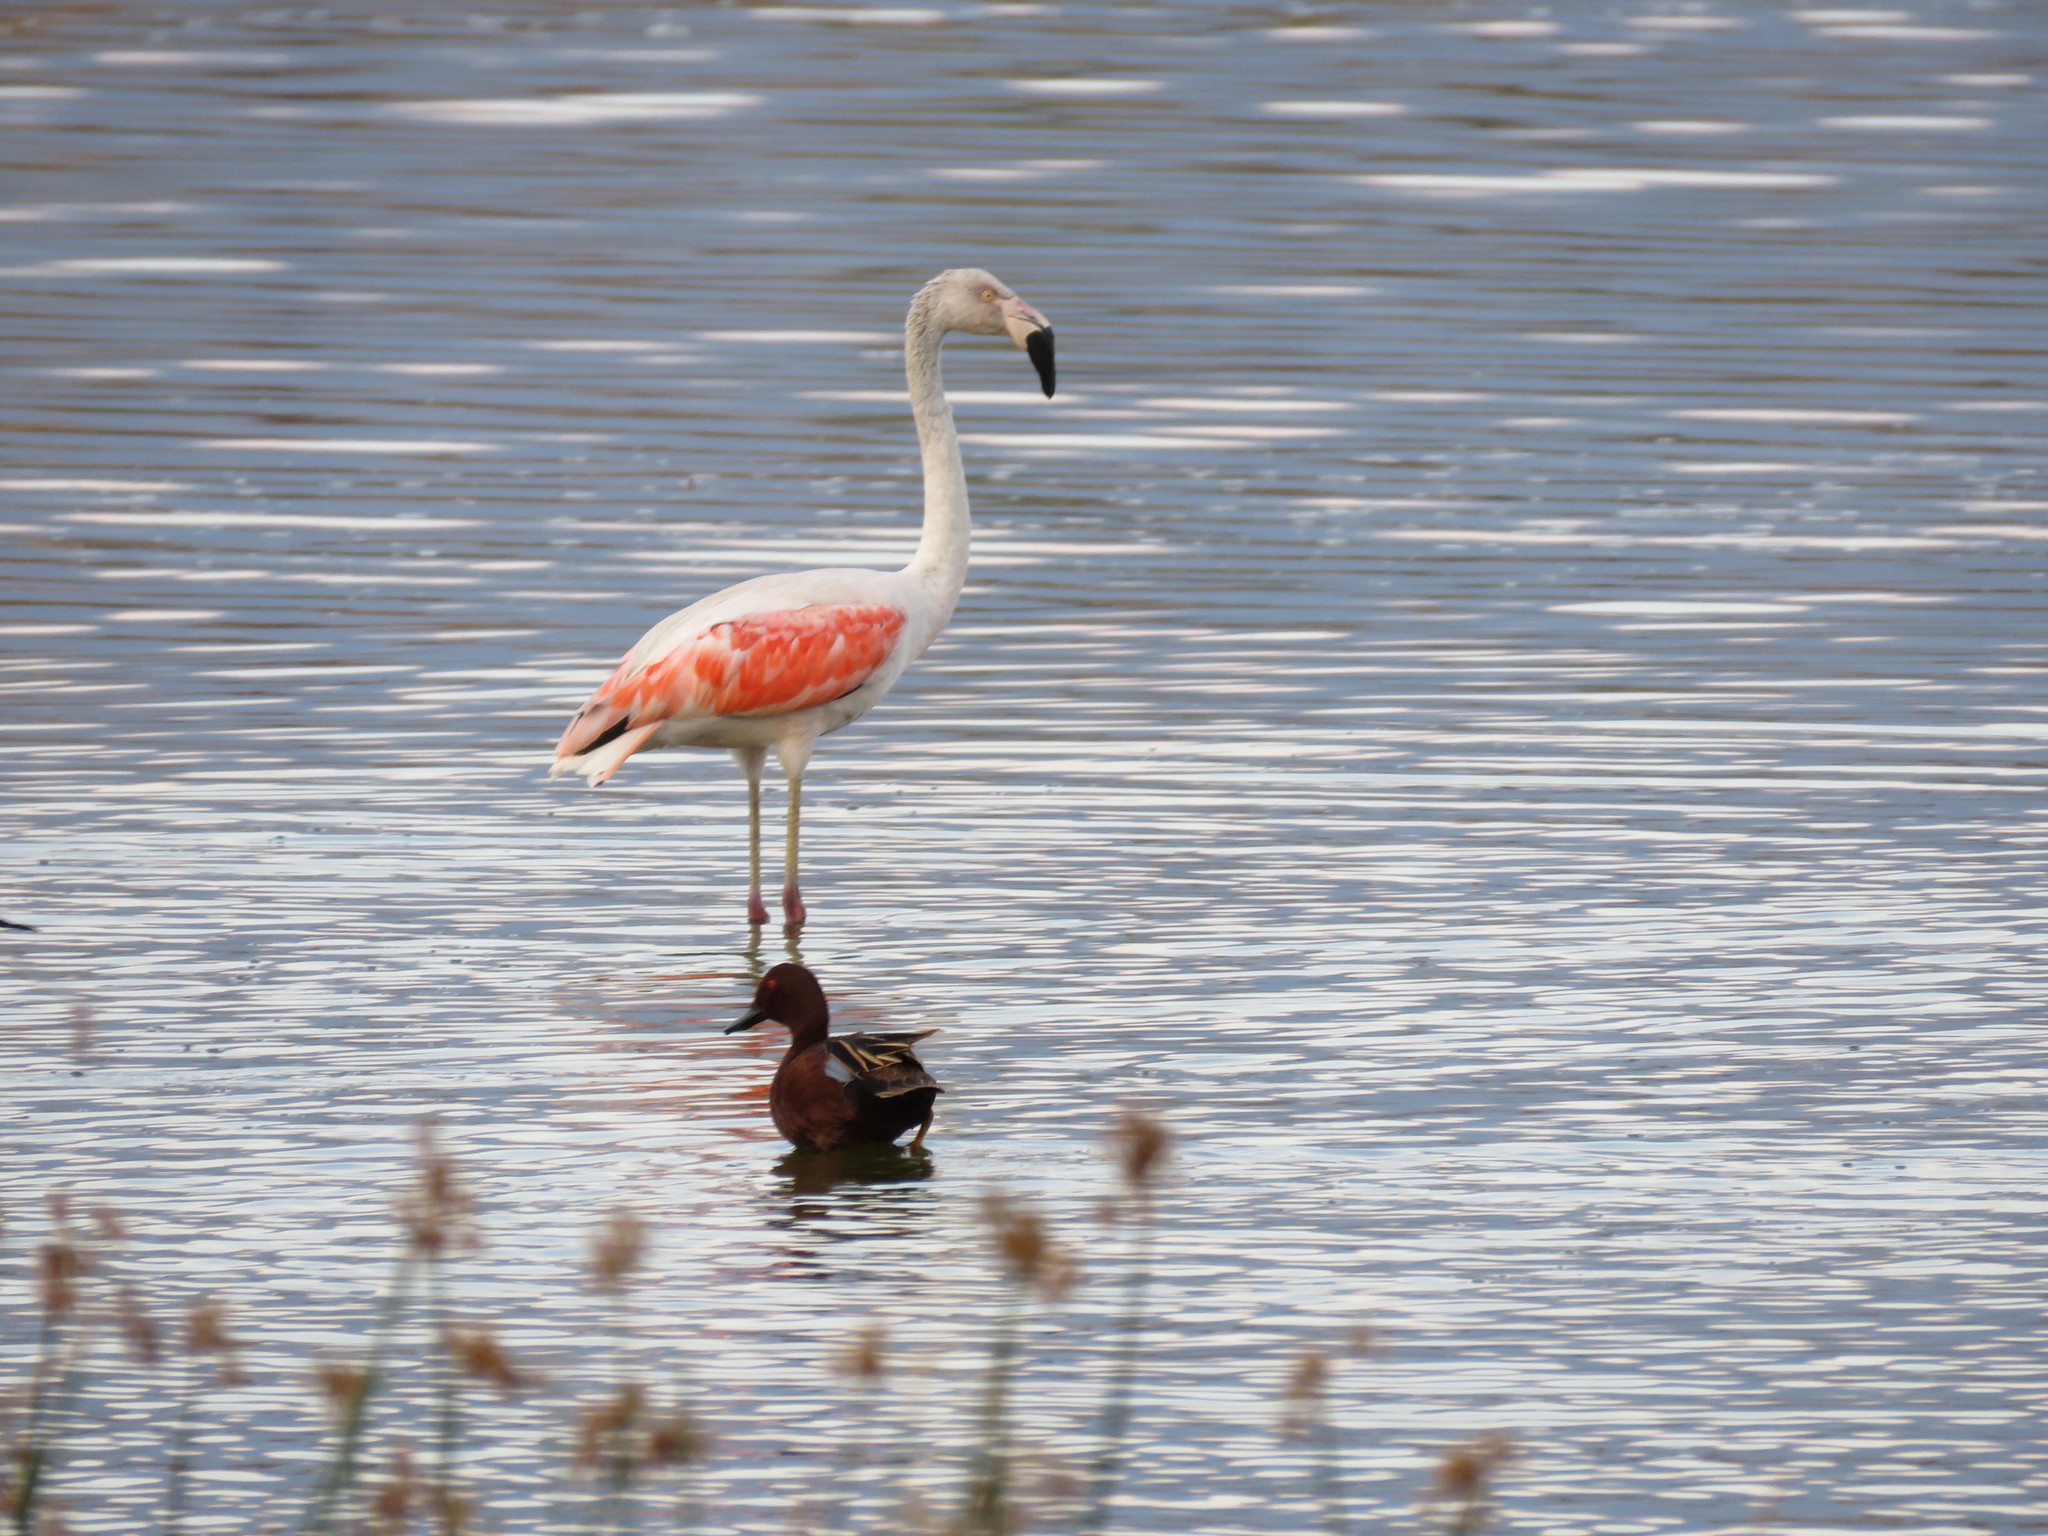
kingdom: Animalia
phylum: Chordata
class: Aves
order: Anseriformes
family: Anatidae
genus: Spatula
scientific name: Spatula cyanoptera
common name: Cinnamon teal
